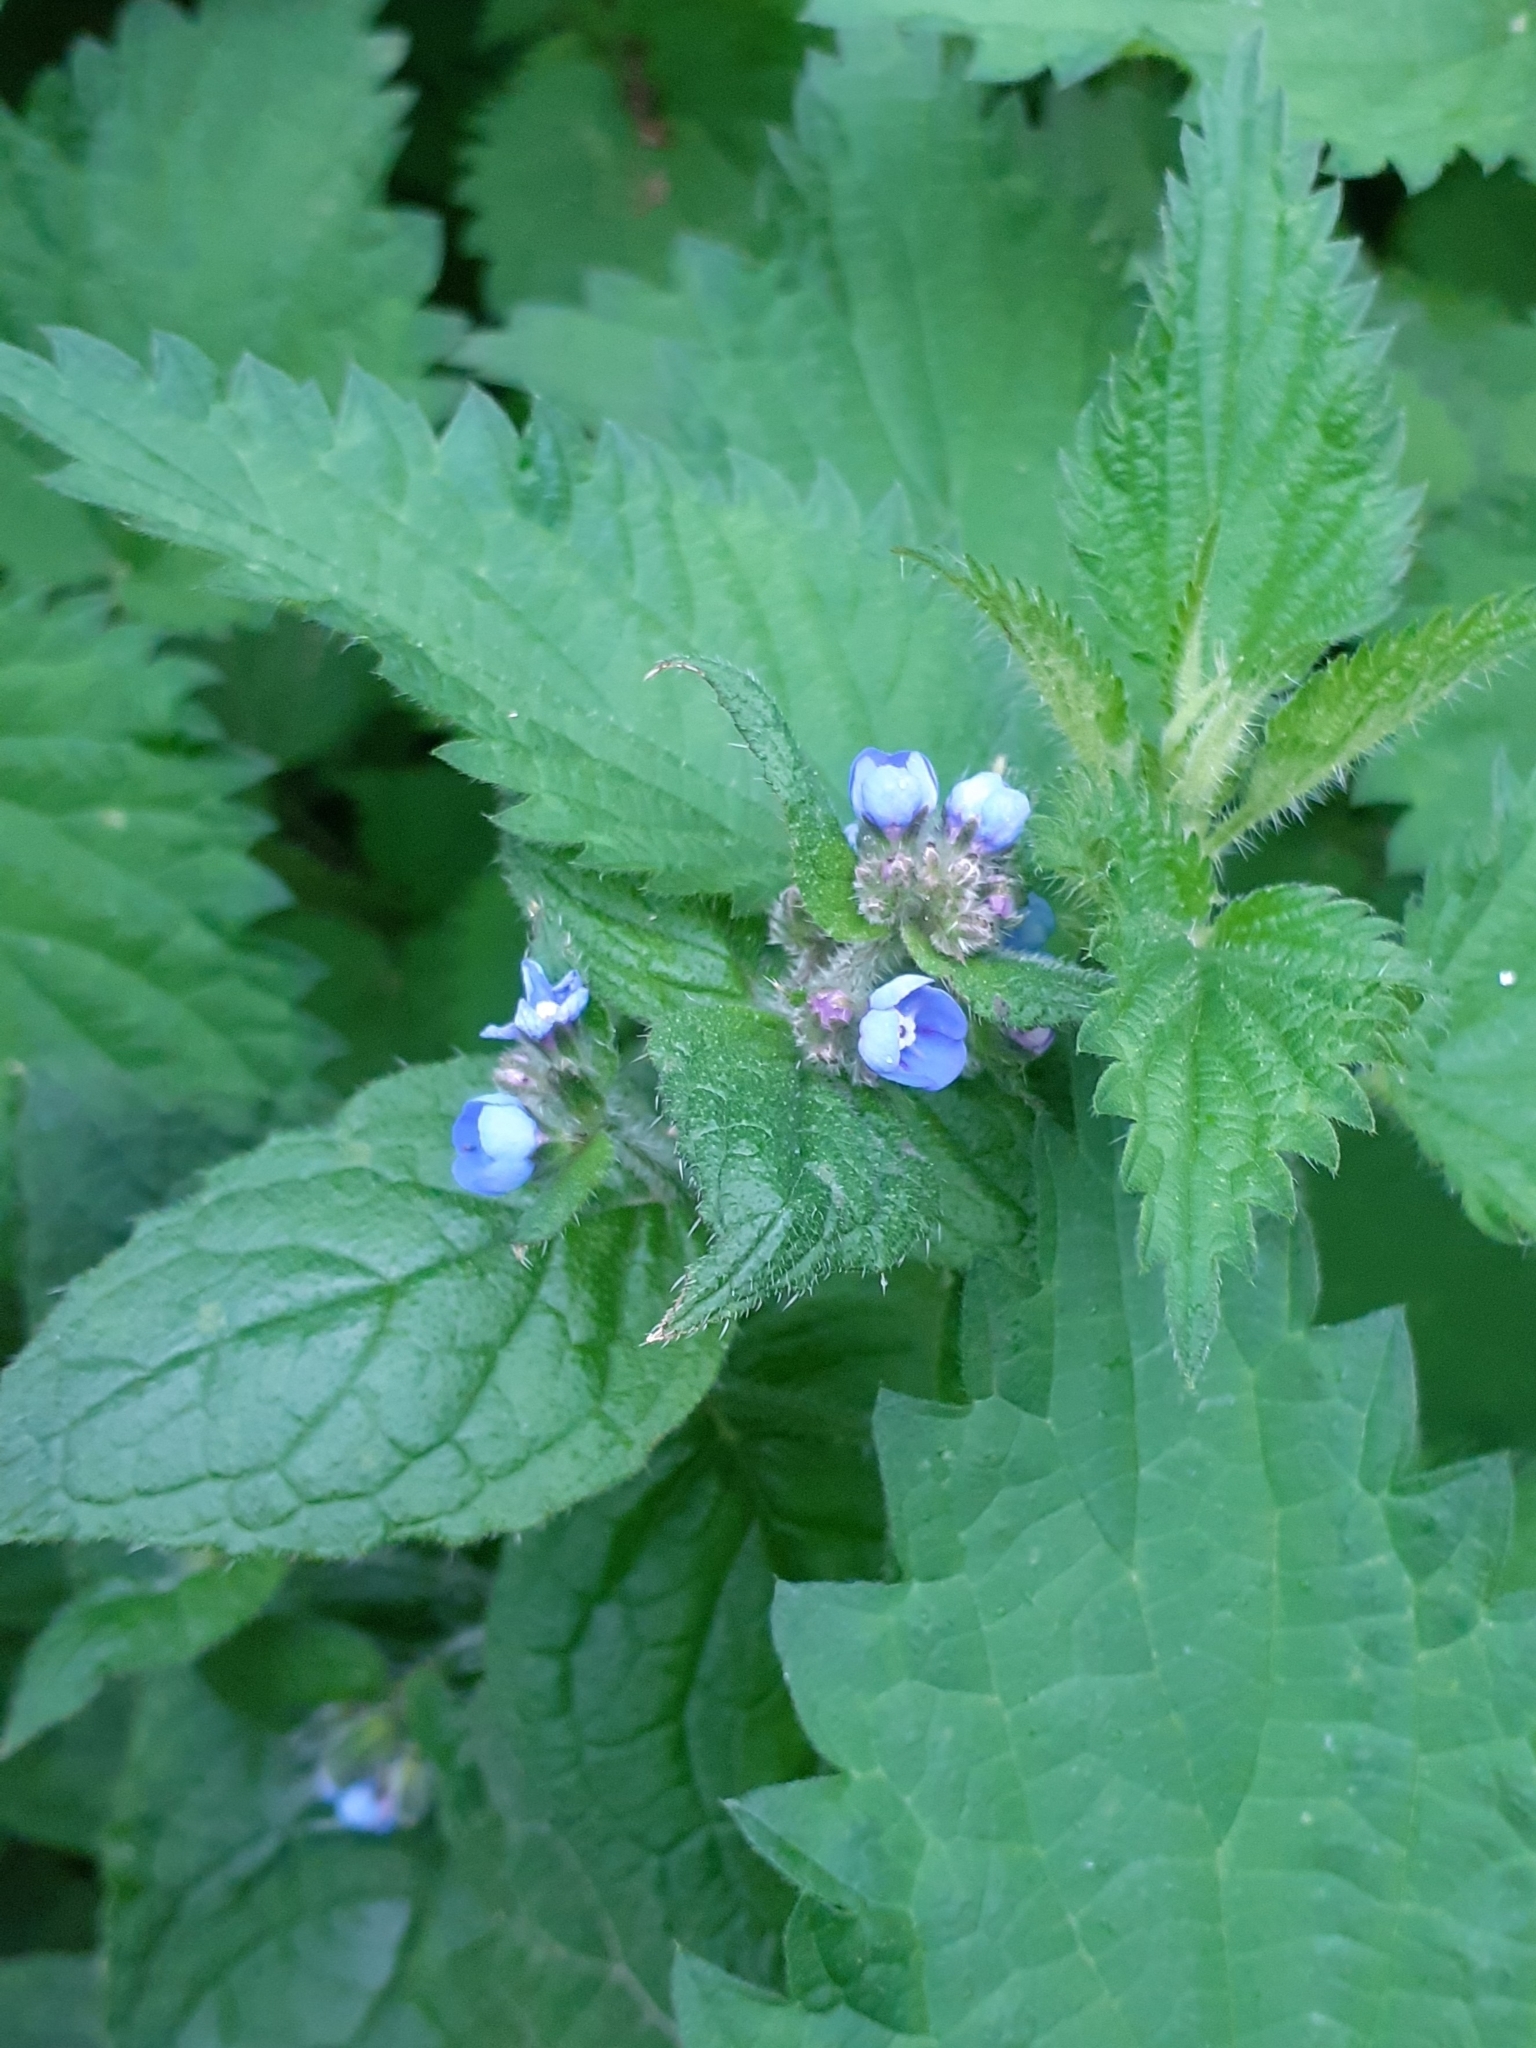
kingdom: Plantae
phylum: Tracheophyta
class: Magnoliopsida
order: Boraginales
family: Boraginaceae
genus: Pentaglottis
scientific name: Pentaglottis sempervirens
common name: Green alkanet
